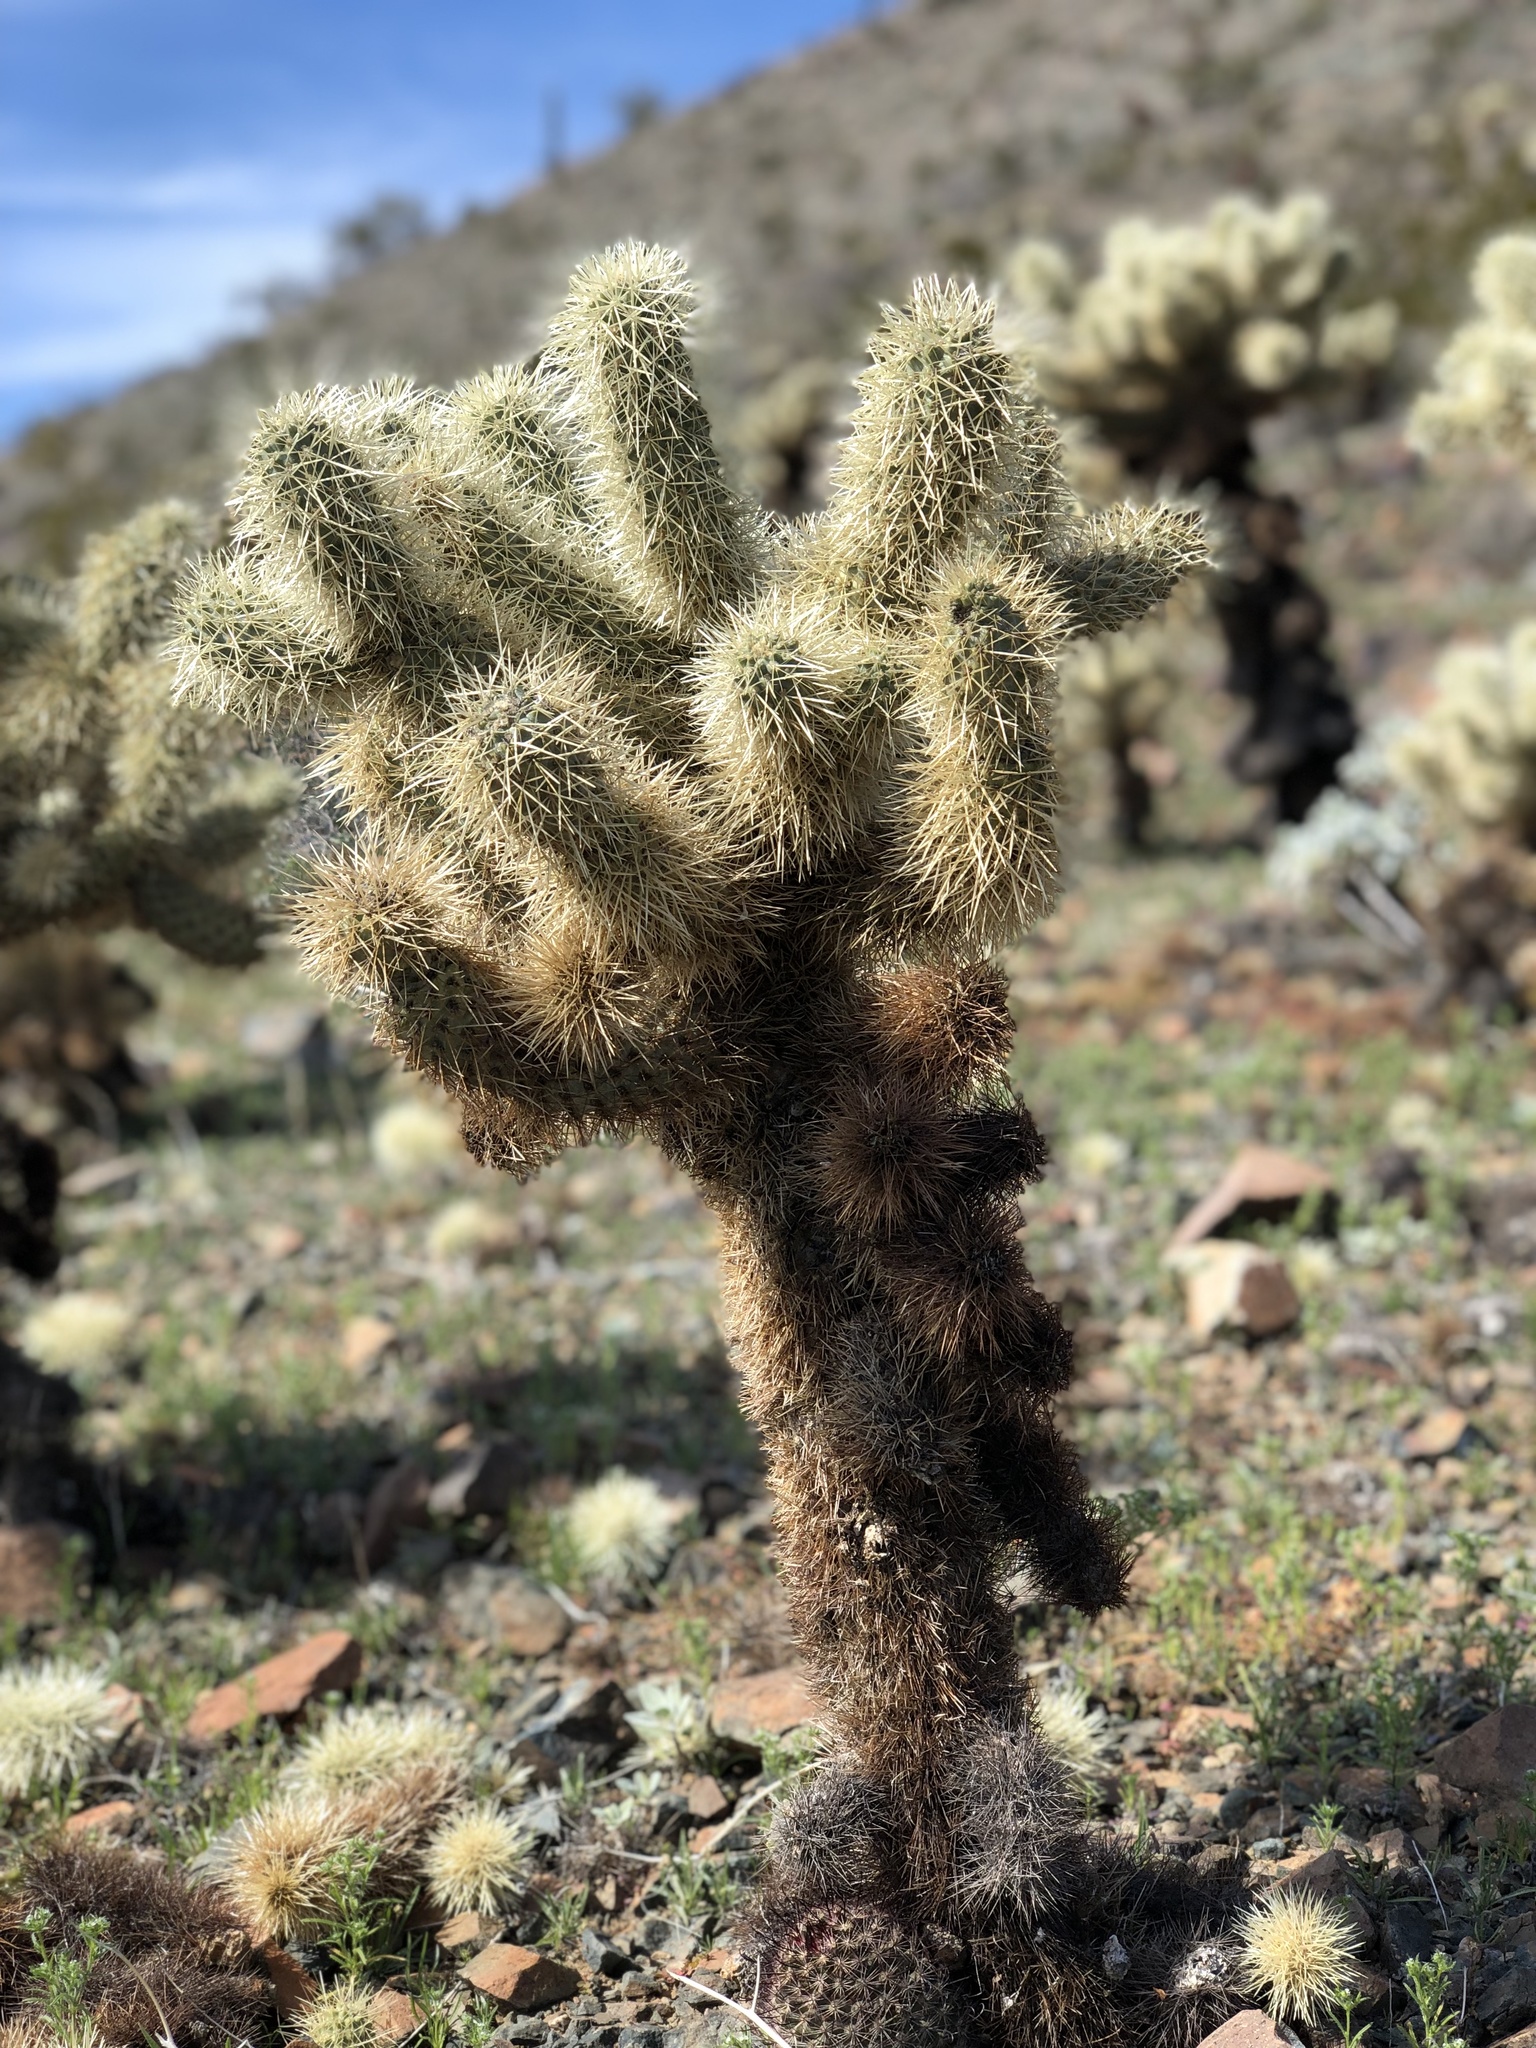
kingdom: Plantae
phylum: Tracheophyta
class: Magnoliopsida
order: Caryophyllales
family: Cactaceae
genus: Cylindropuntia
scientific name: Cylindropuntia fosbergii
